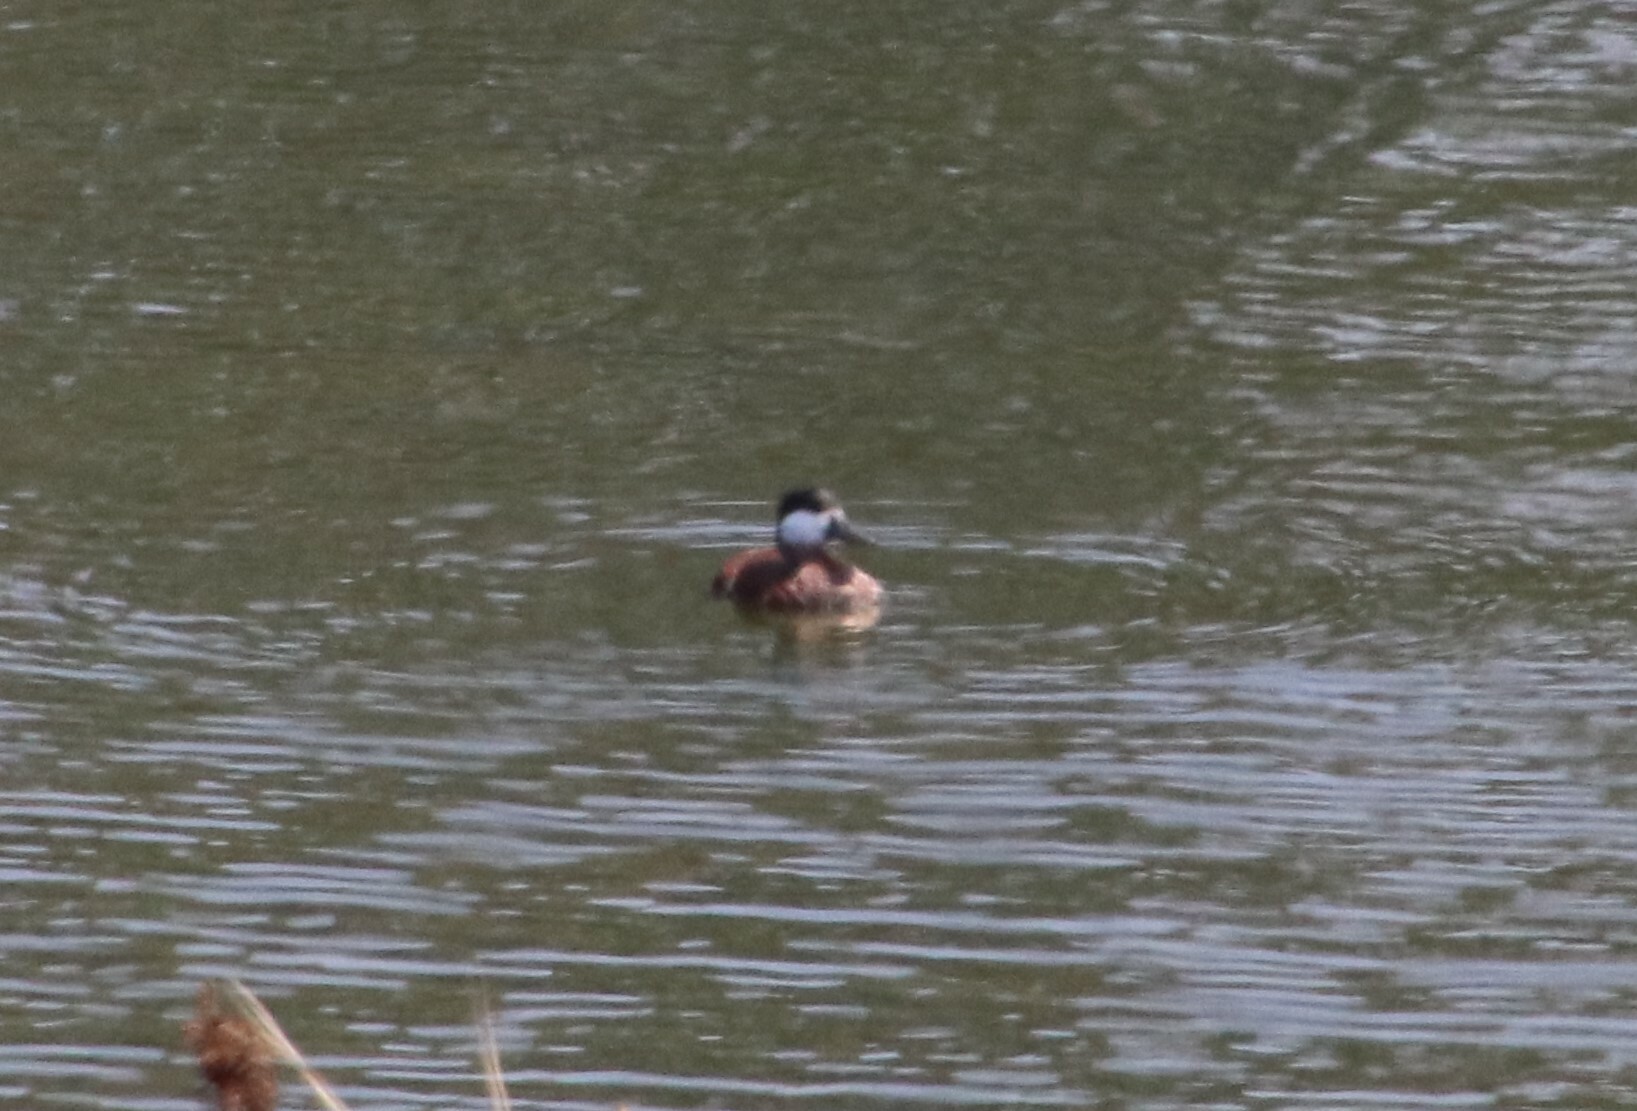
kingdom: Animalia
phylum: Chordata
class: Aves
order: Anseriformes
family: Anatidae
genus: Oxyura
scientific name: Oxyura jamaicensis
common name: Ruddy duck
